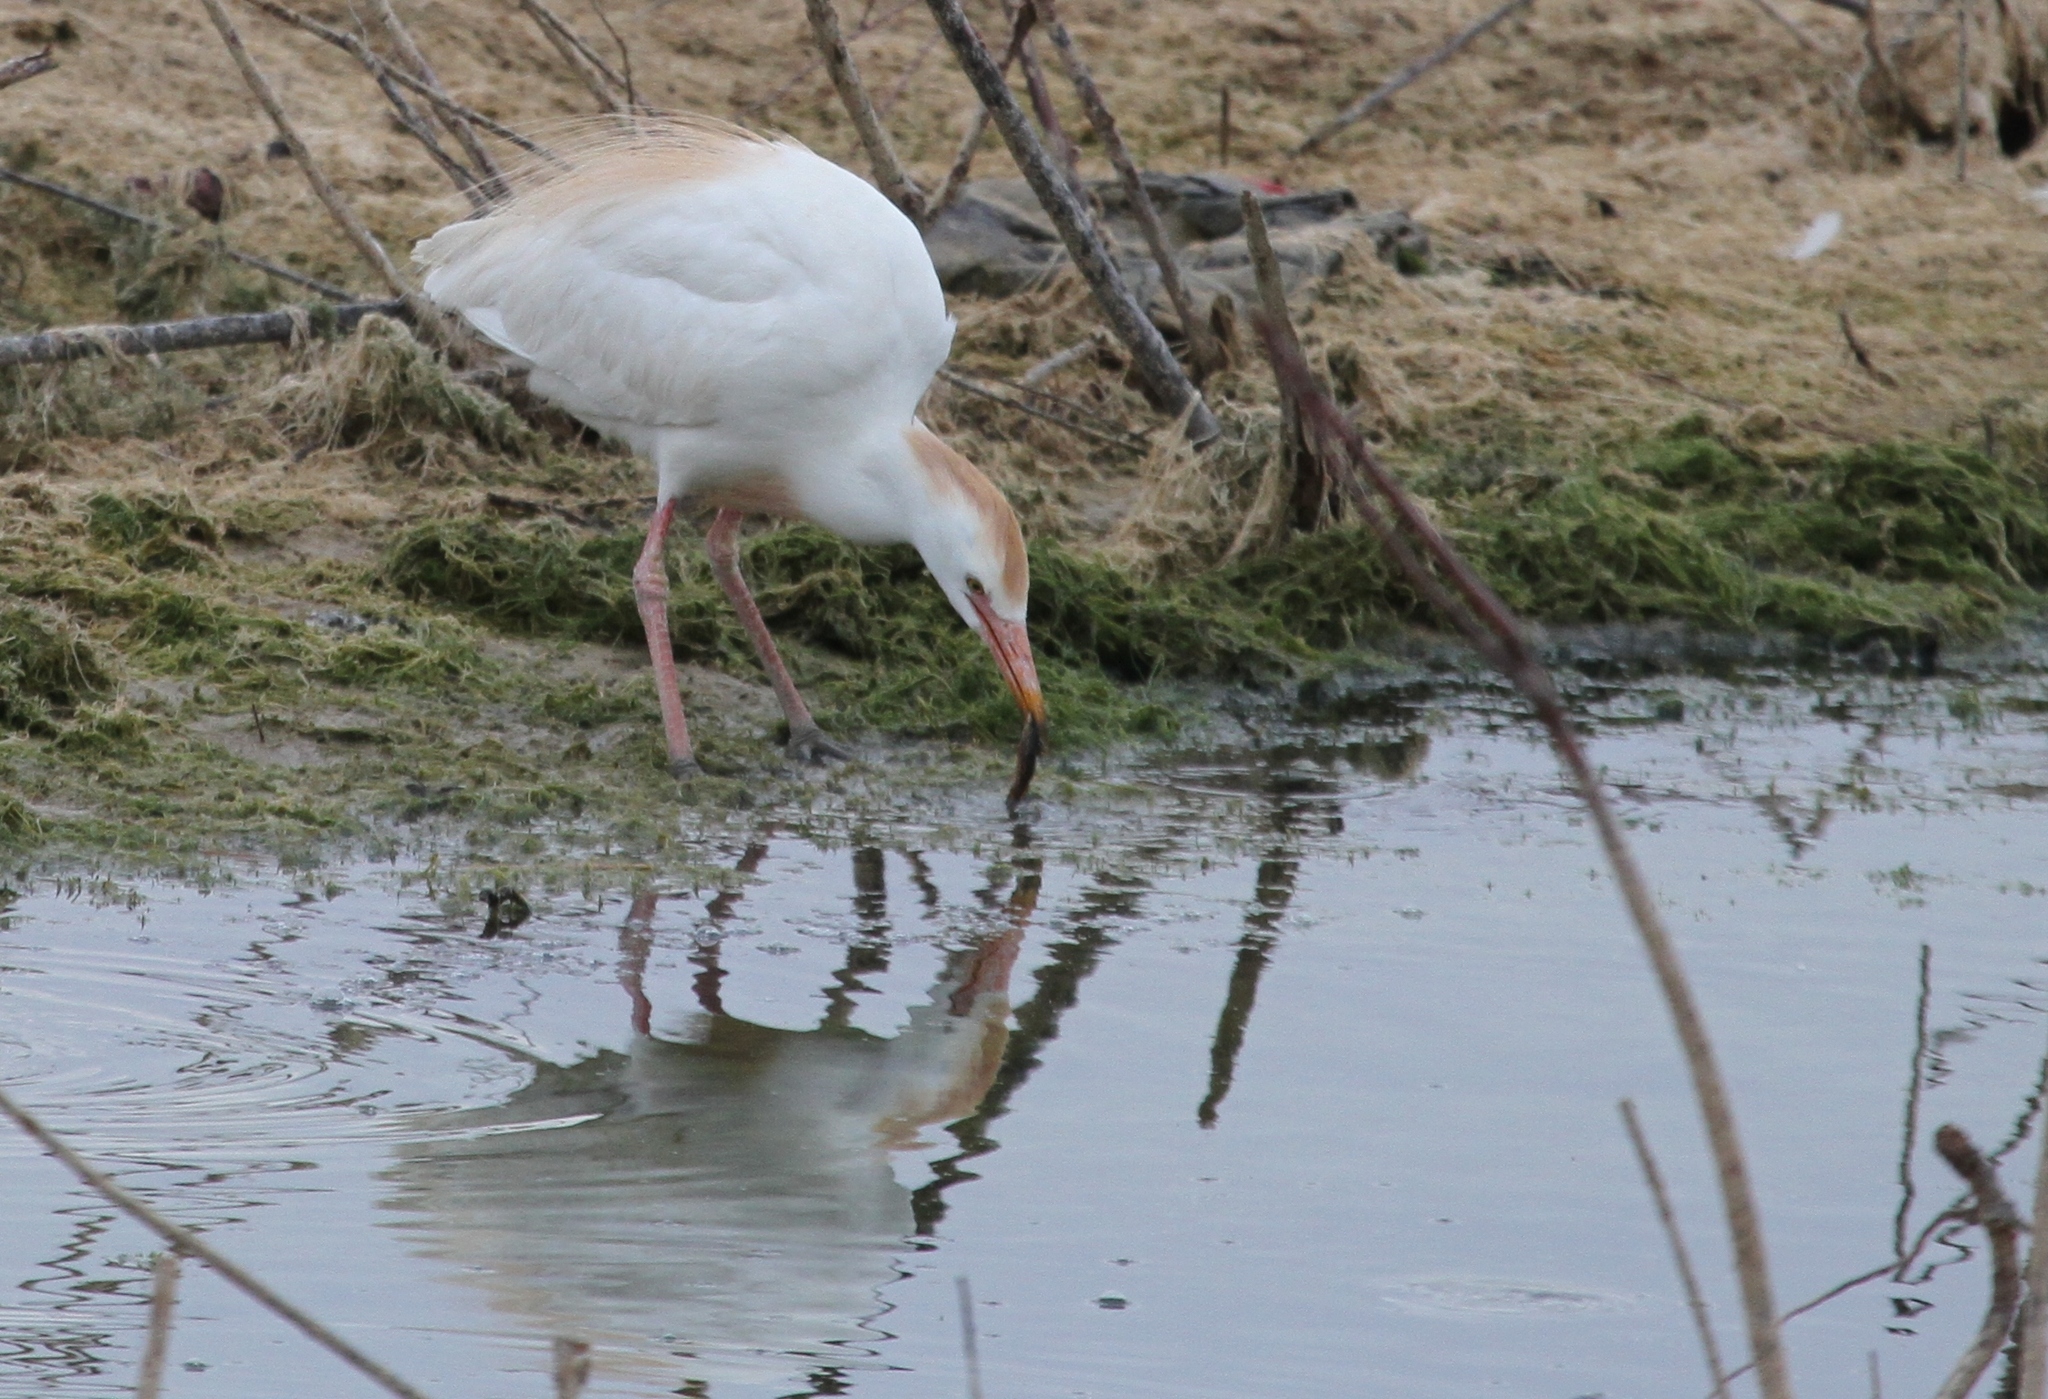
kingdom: Animalia
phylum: Chordata
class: Aves
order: Pelecaniformes
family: Ardeidae
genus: Bubulcus
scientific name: Bubulcus ibis
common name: Cattle egret
